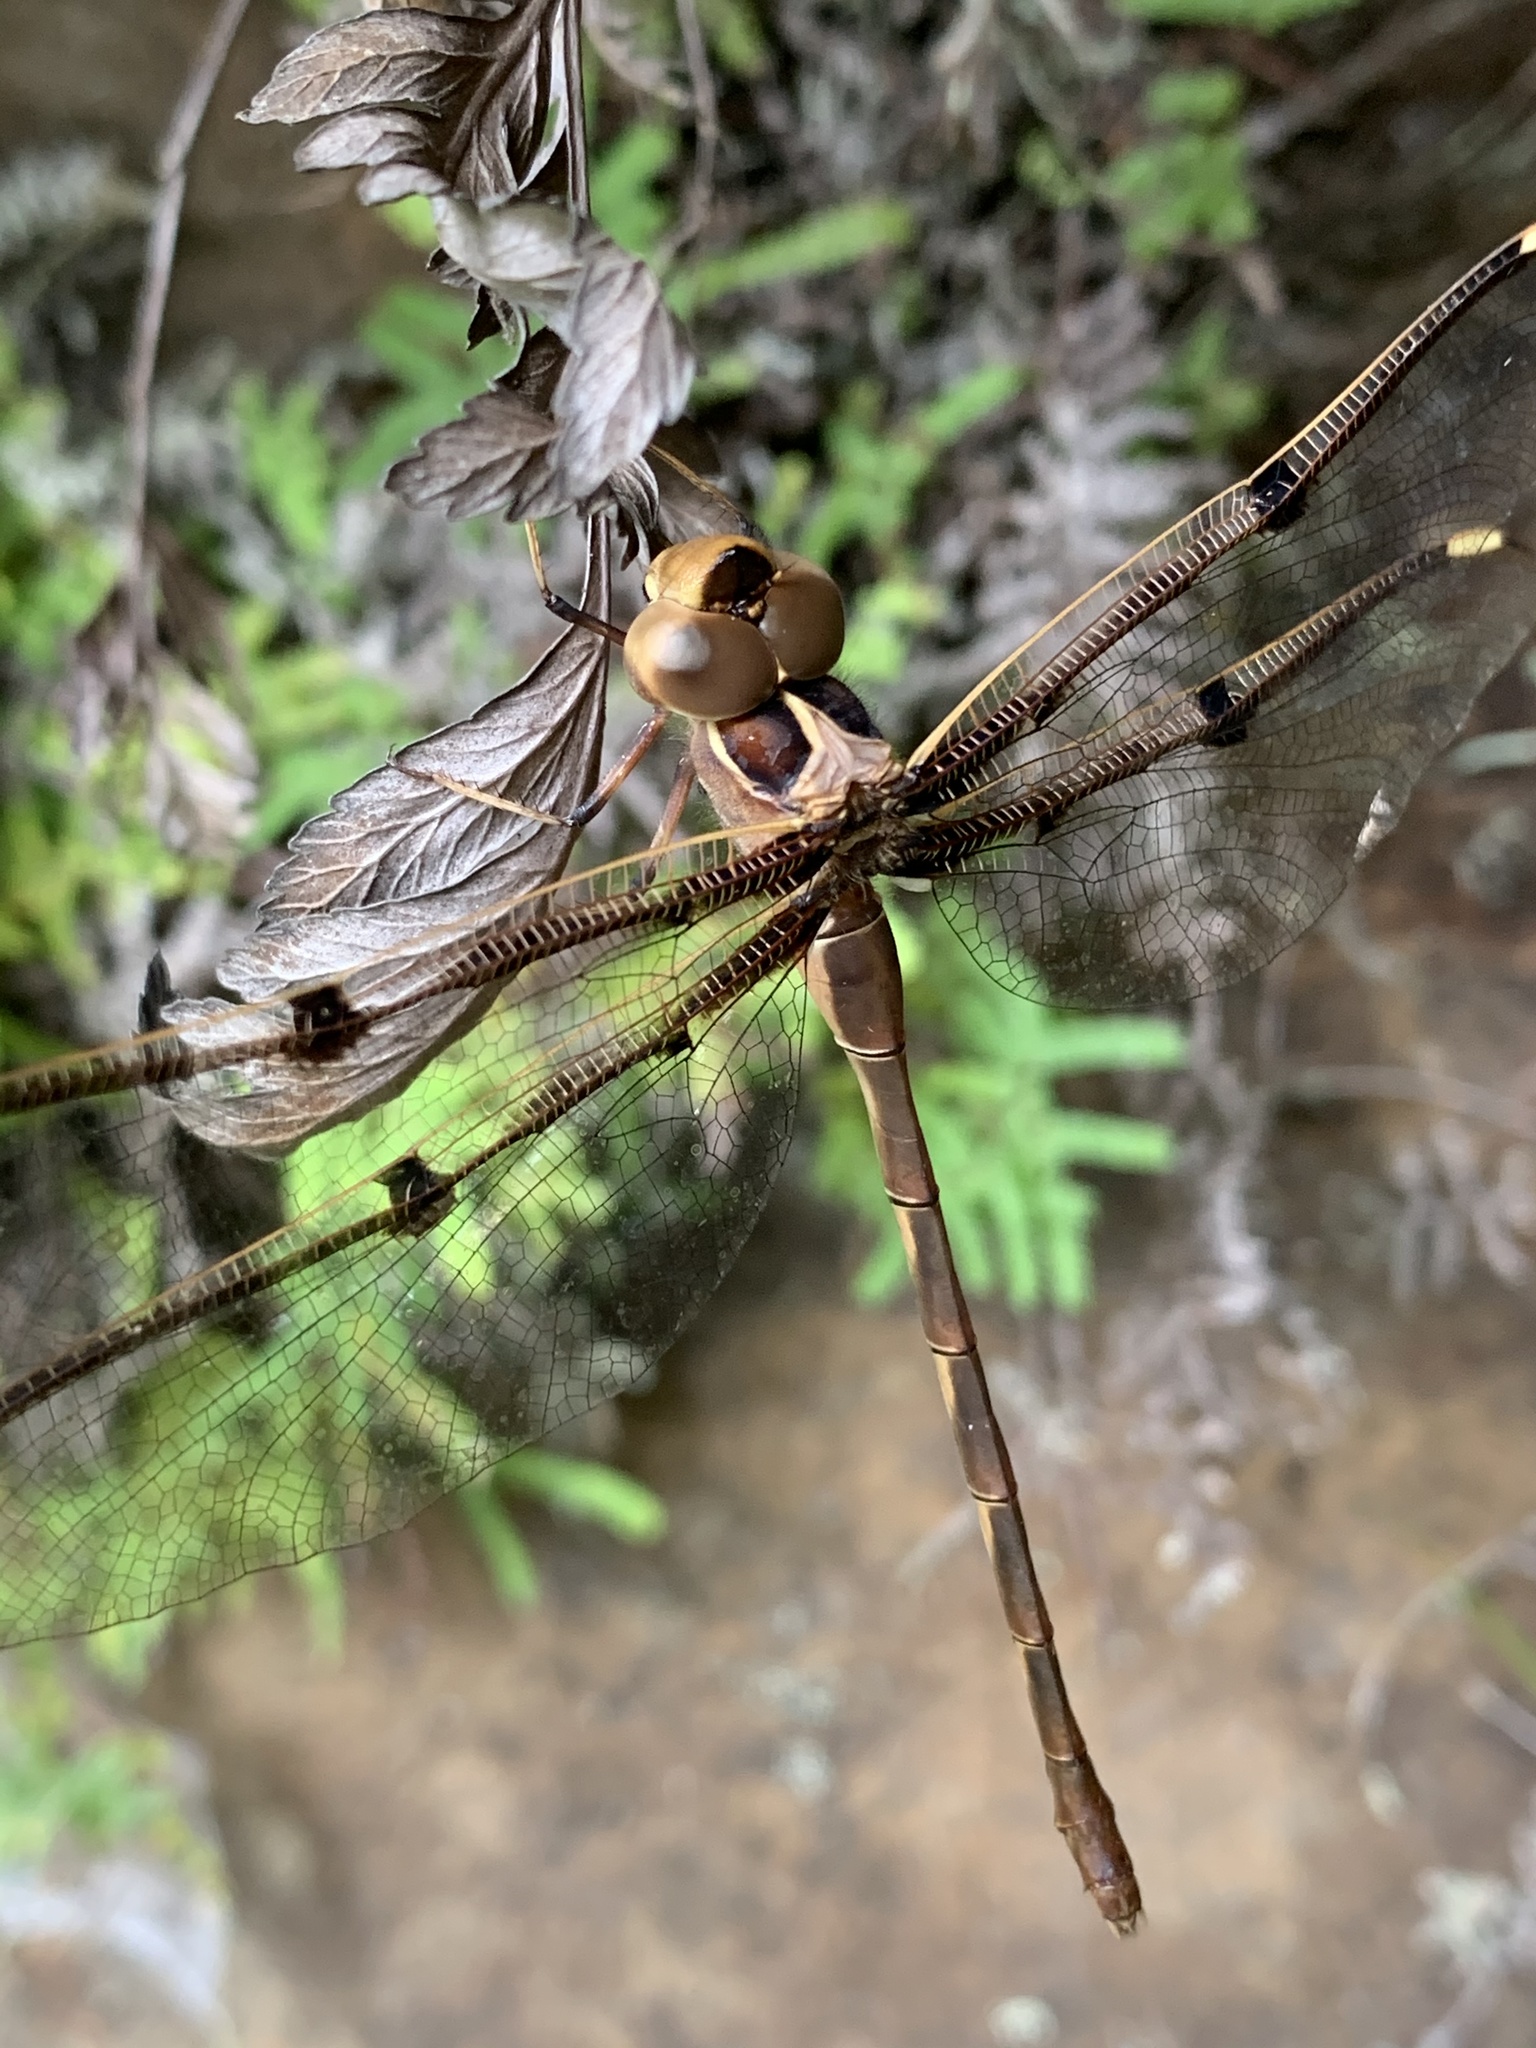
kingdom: Animalia
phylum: Arthropoda
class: Insecta
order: Odonata
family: Aeshnidae
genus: Telephlebia
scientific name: Telephlebia godeffroyi
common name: Eastern evening darner
